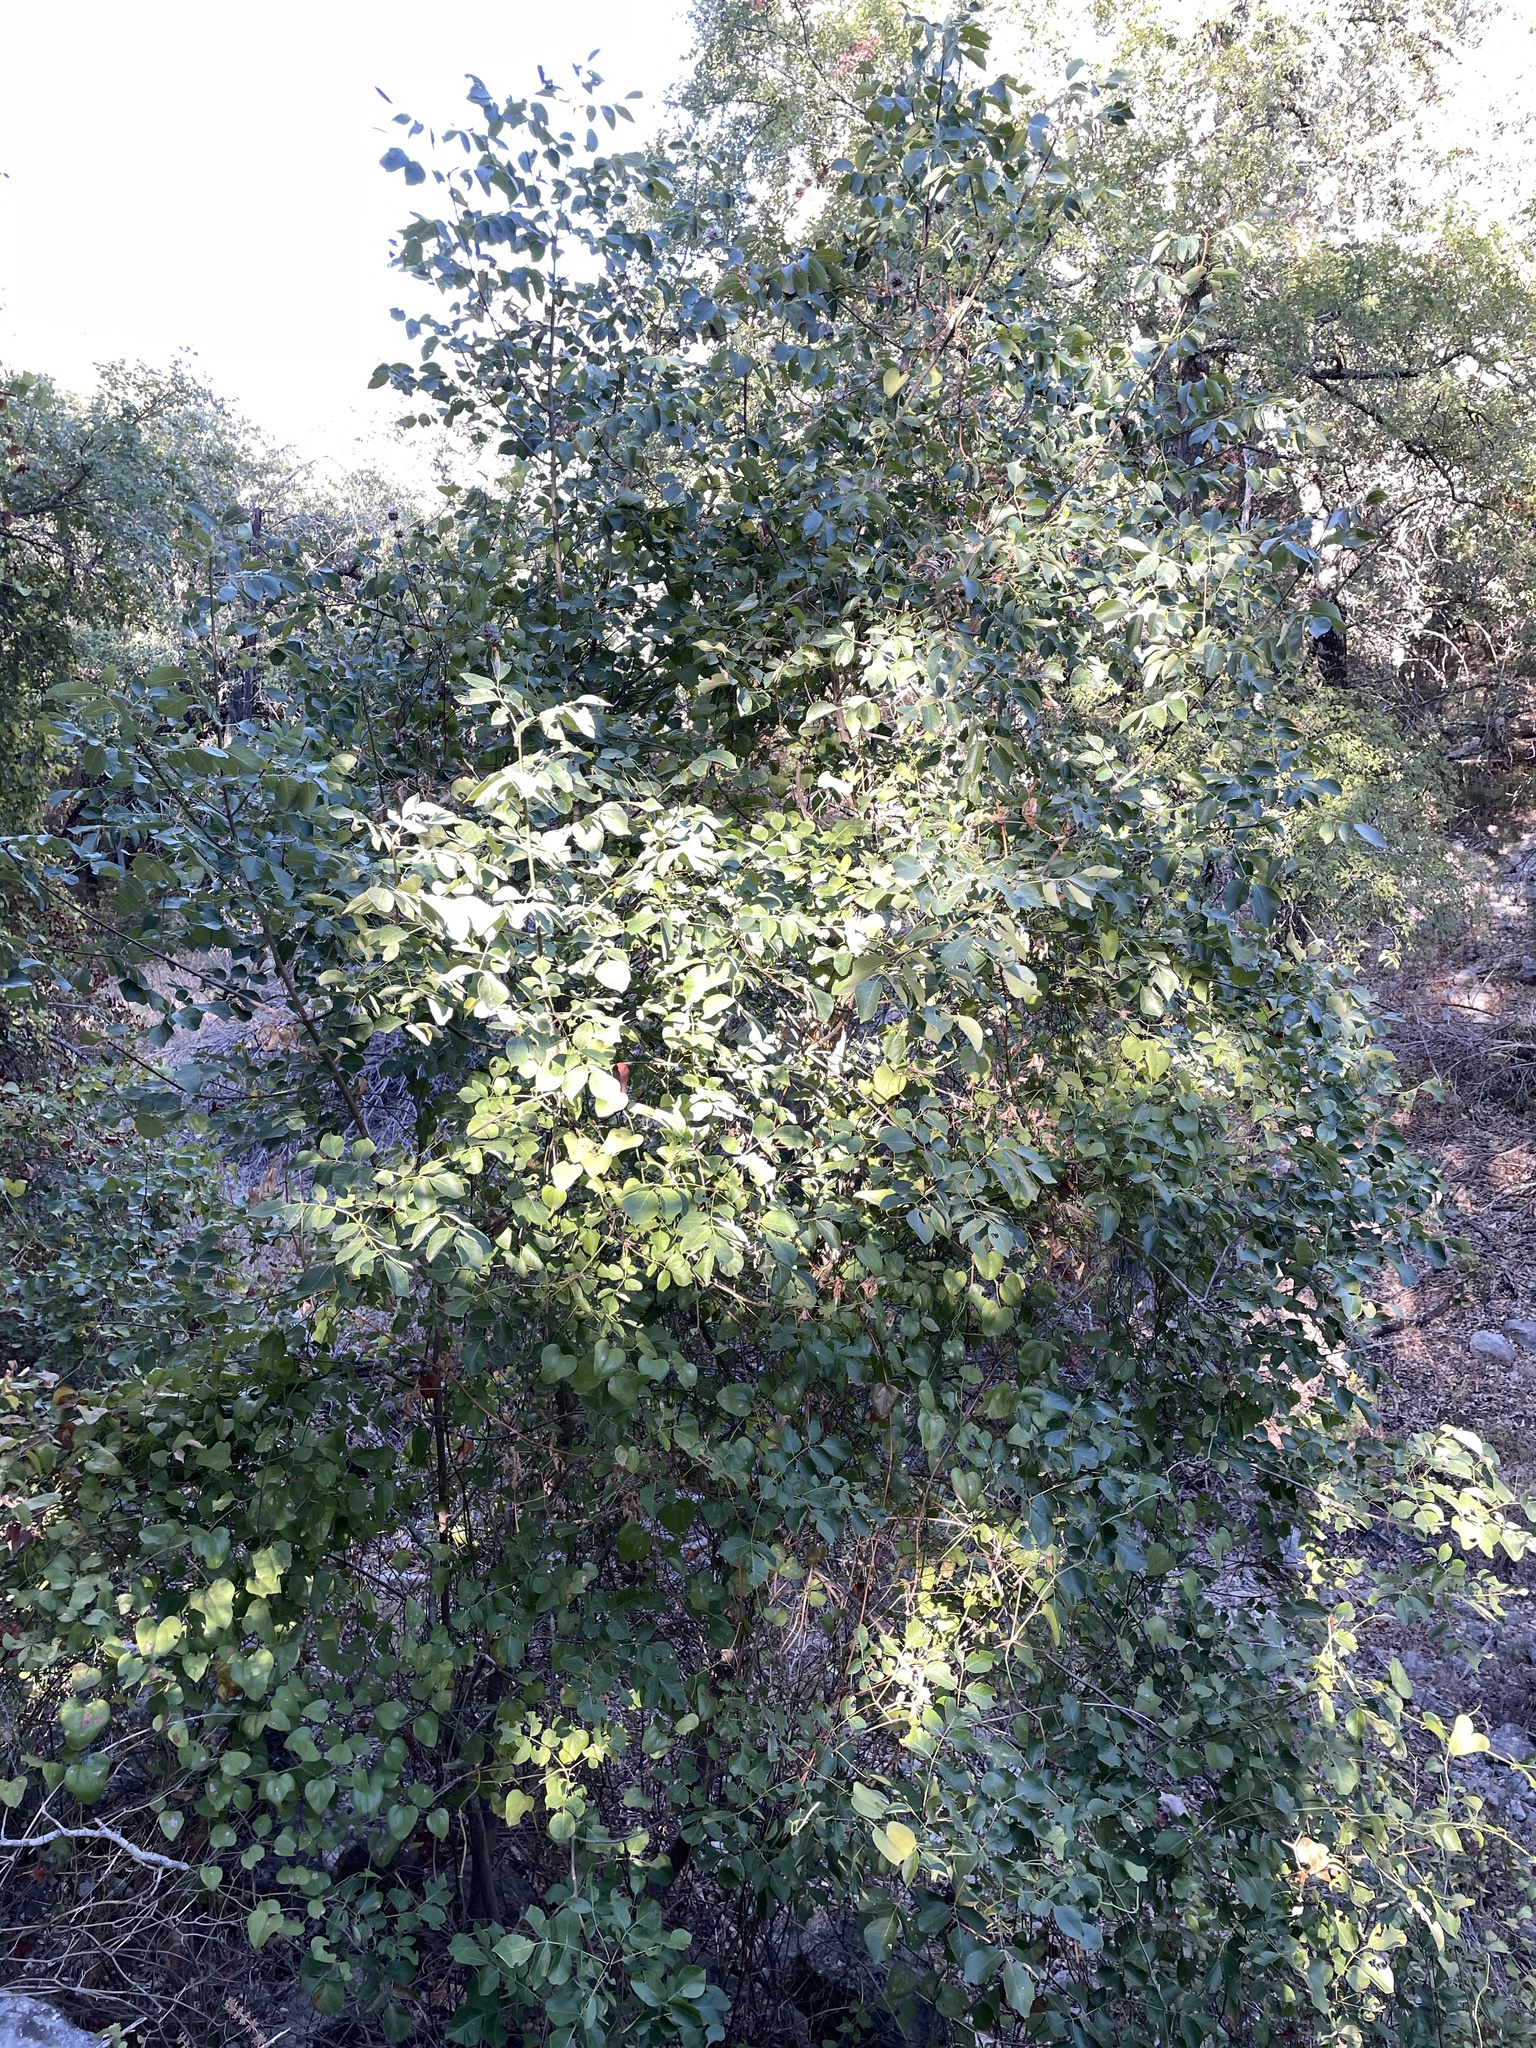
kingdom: Plantae
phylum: Tracheophyta
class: Magnoliopsida
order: Lamiales
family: Oleaceae
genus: Fraxinus
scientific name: Fraxinus albicans
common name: Texas ash
